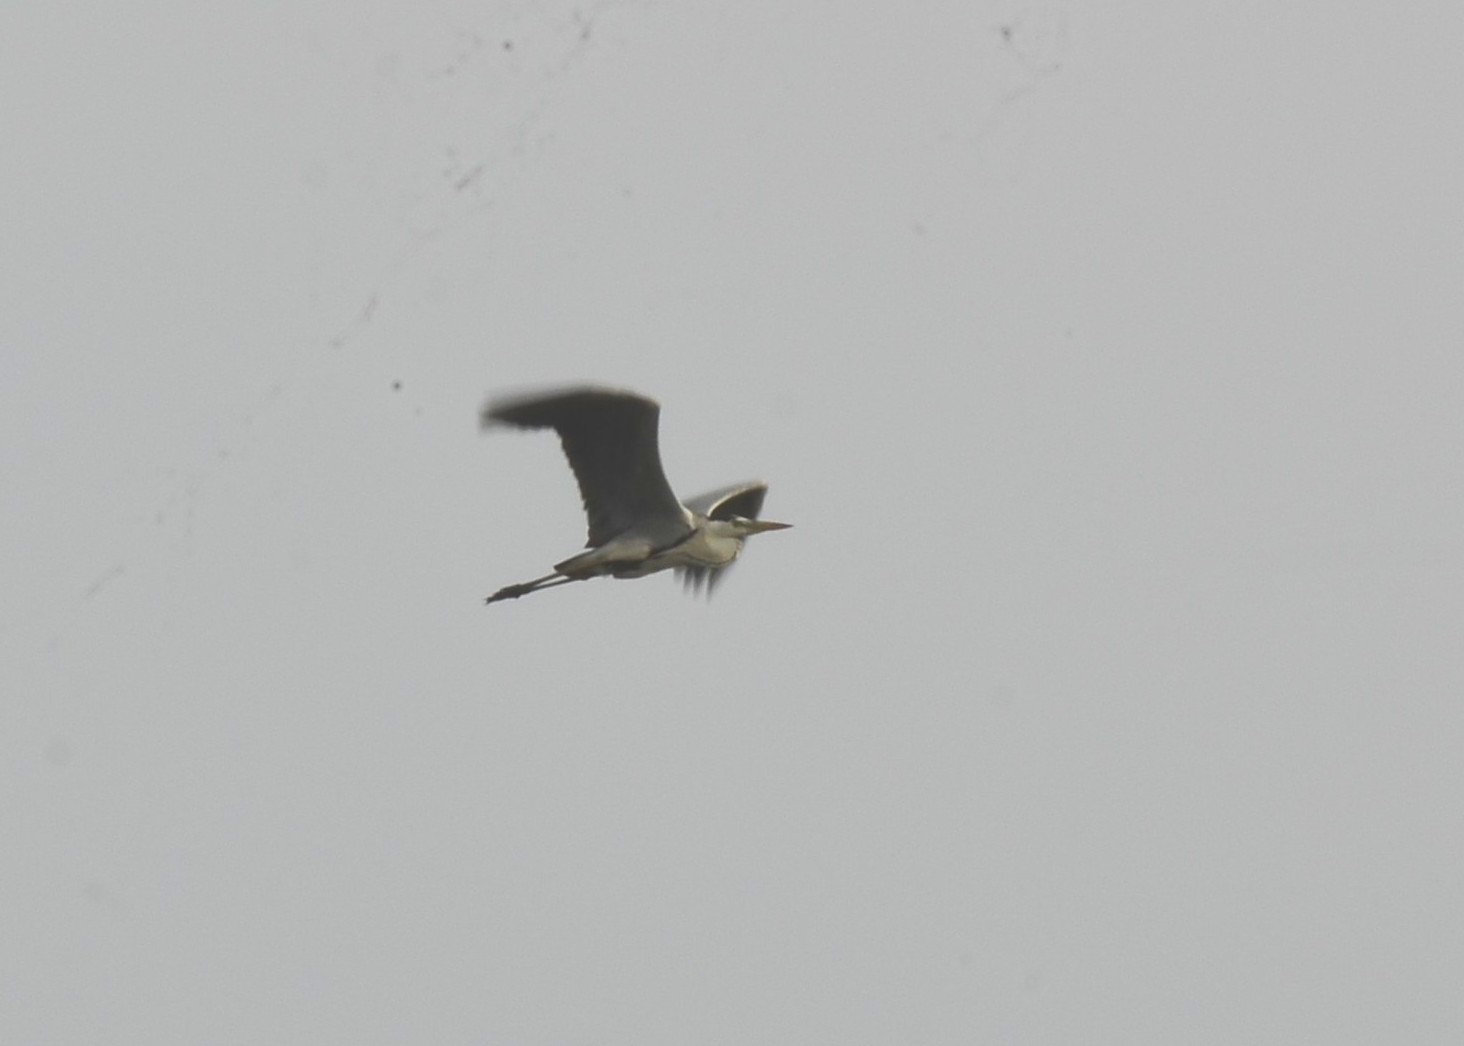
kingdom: Animalia
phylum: Chordata
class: Aves
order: Pelecaniformes
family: Ardeidae
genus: Ardea
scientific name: Ardea cinerea
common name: Grey heron
